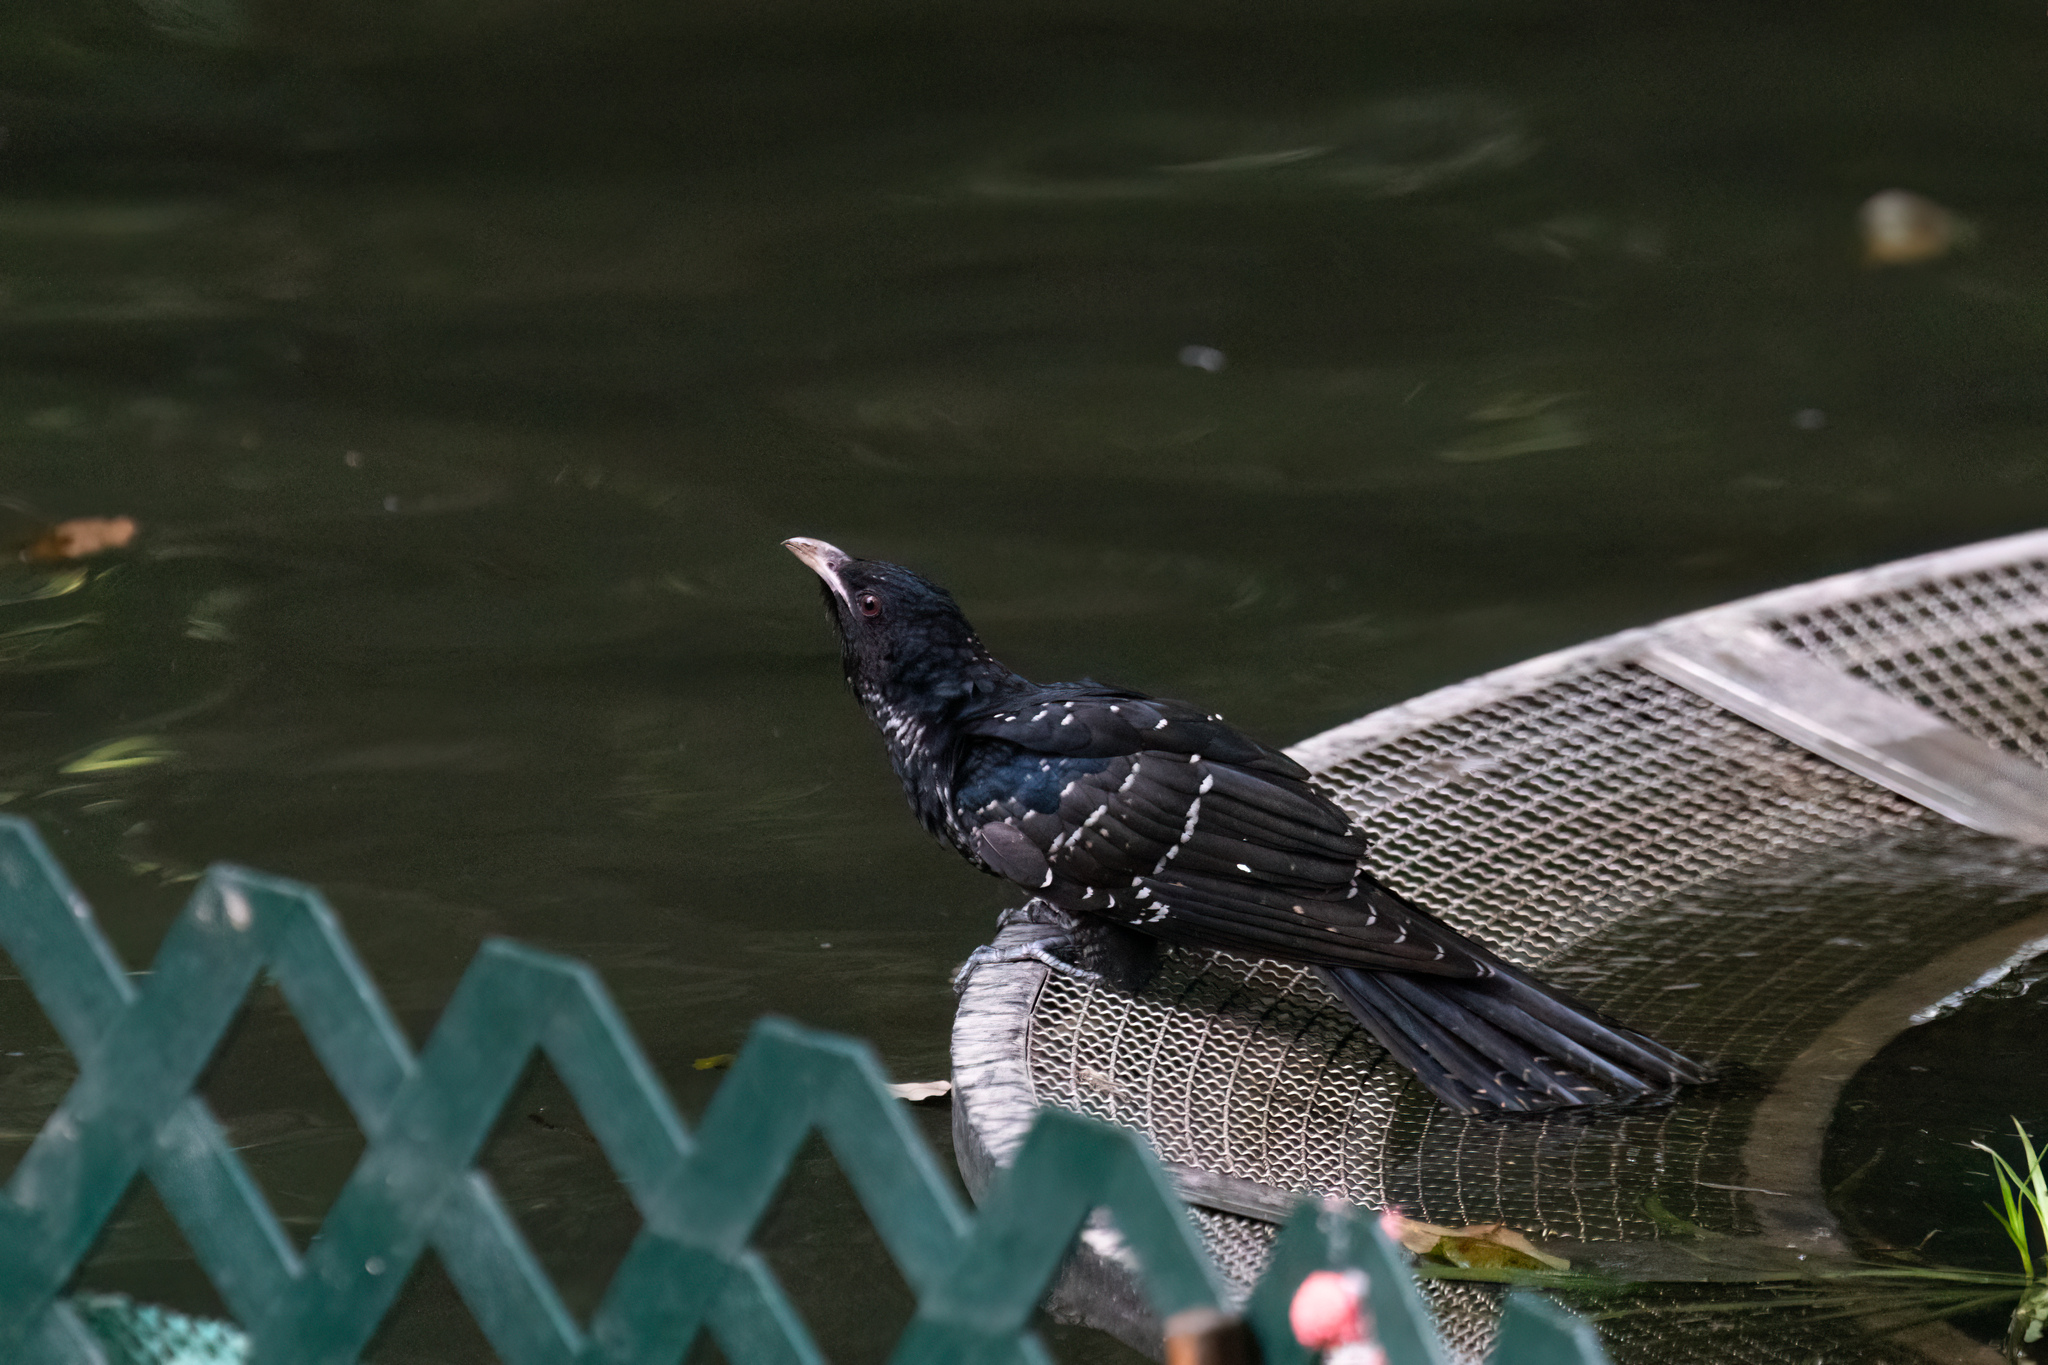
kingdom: Animalia
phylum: Chordata
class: Aves
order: Cuculiformes
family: Cuculidae
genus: Eudynamys
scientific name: Eudynamys scolopaceus
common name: Asian koel
